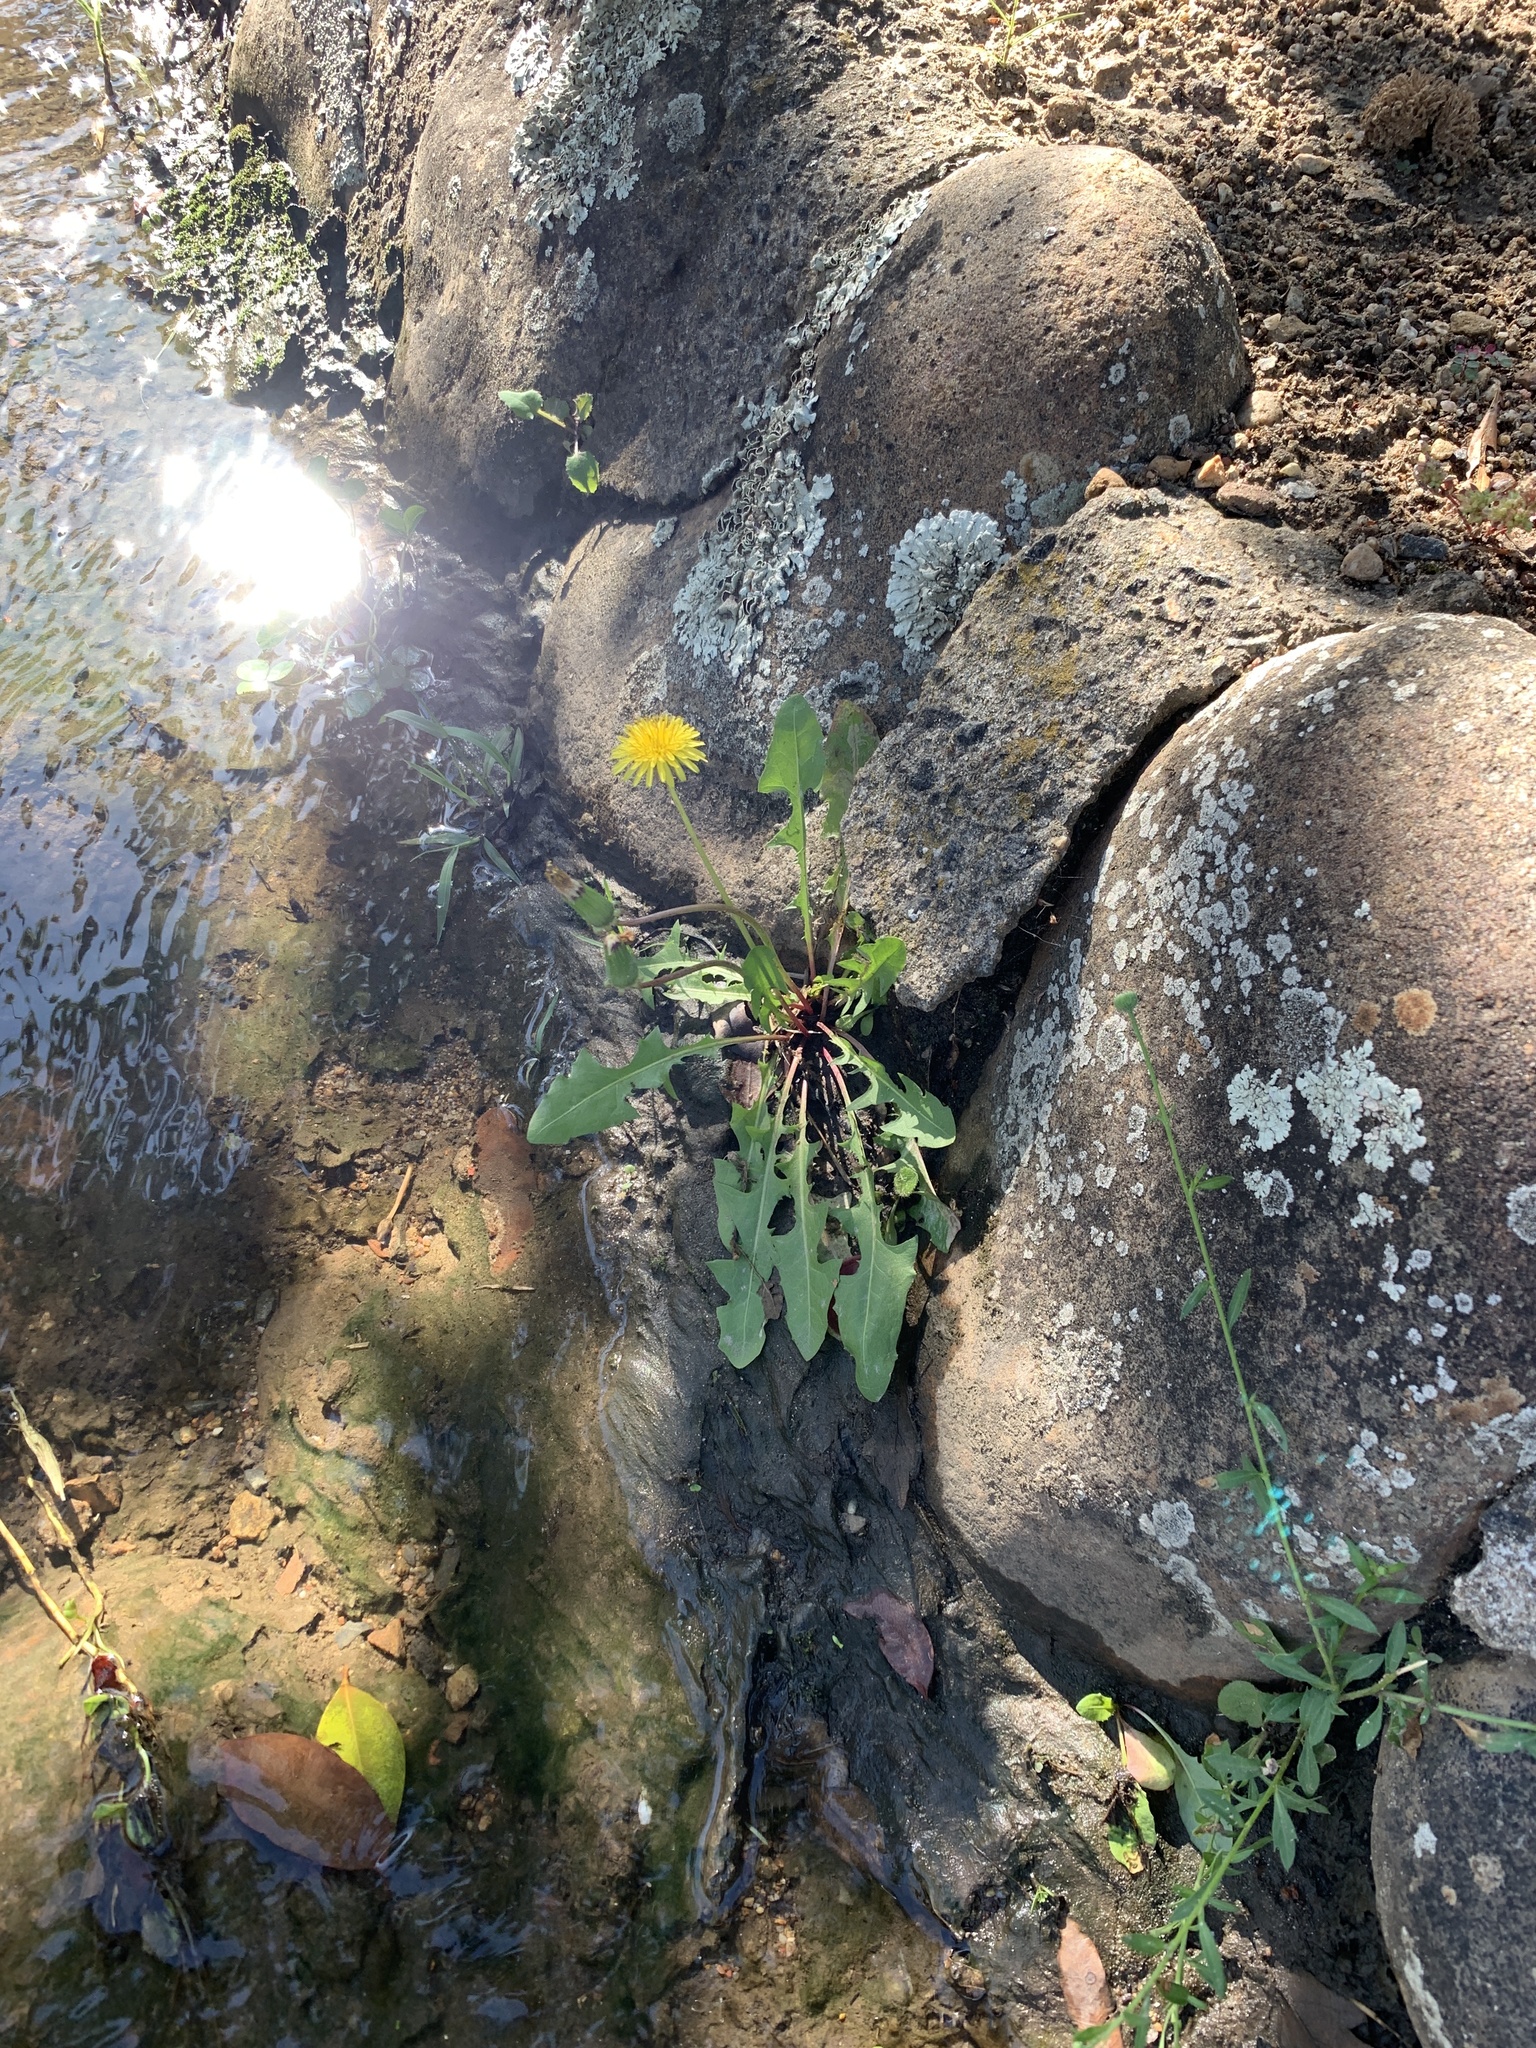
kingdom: Plantae
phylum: Tracheophyta
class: Magnoliopsida
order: Asterales
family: Asteraceae
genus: Taraxacum
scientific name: Taraxacum officinale
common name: Common dandelion
